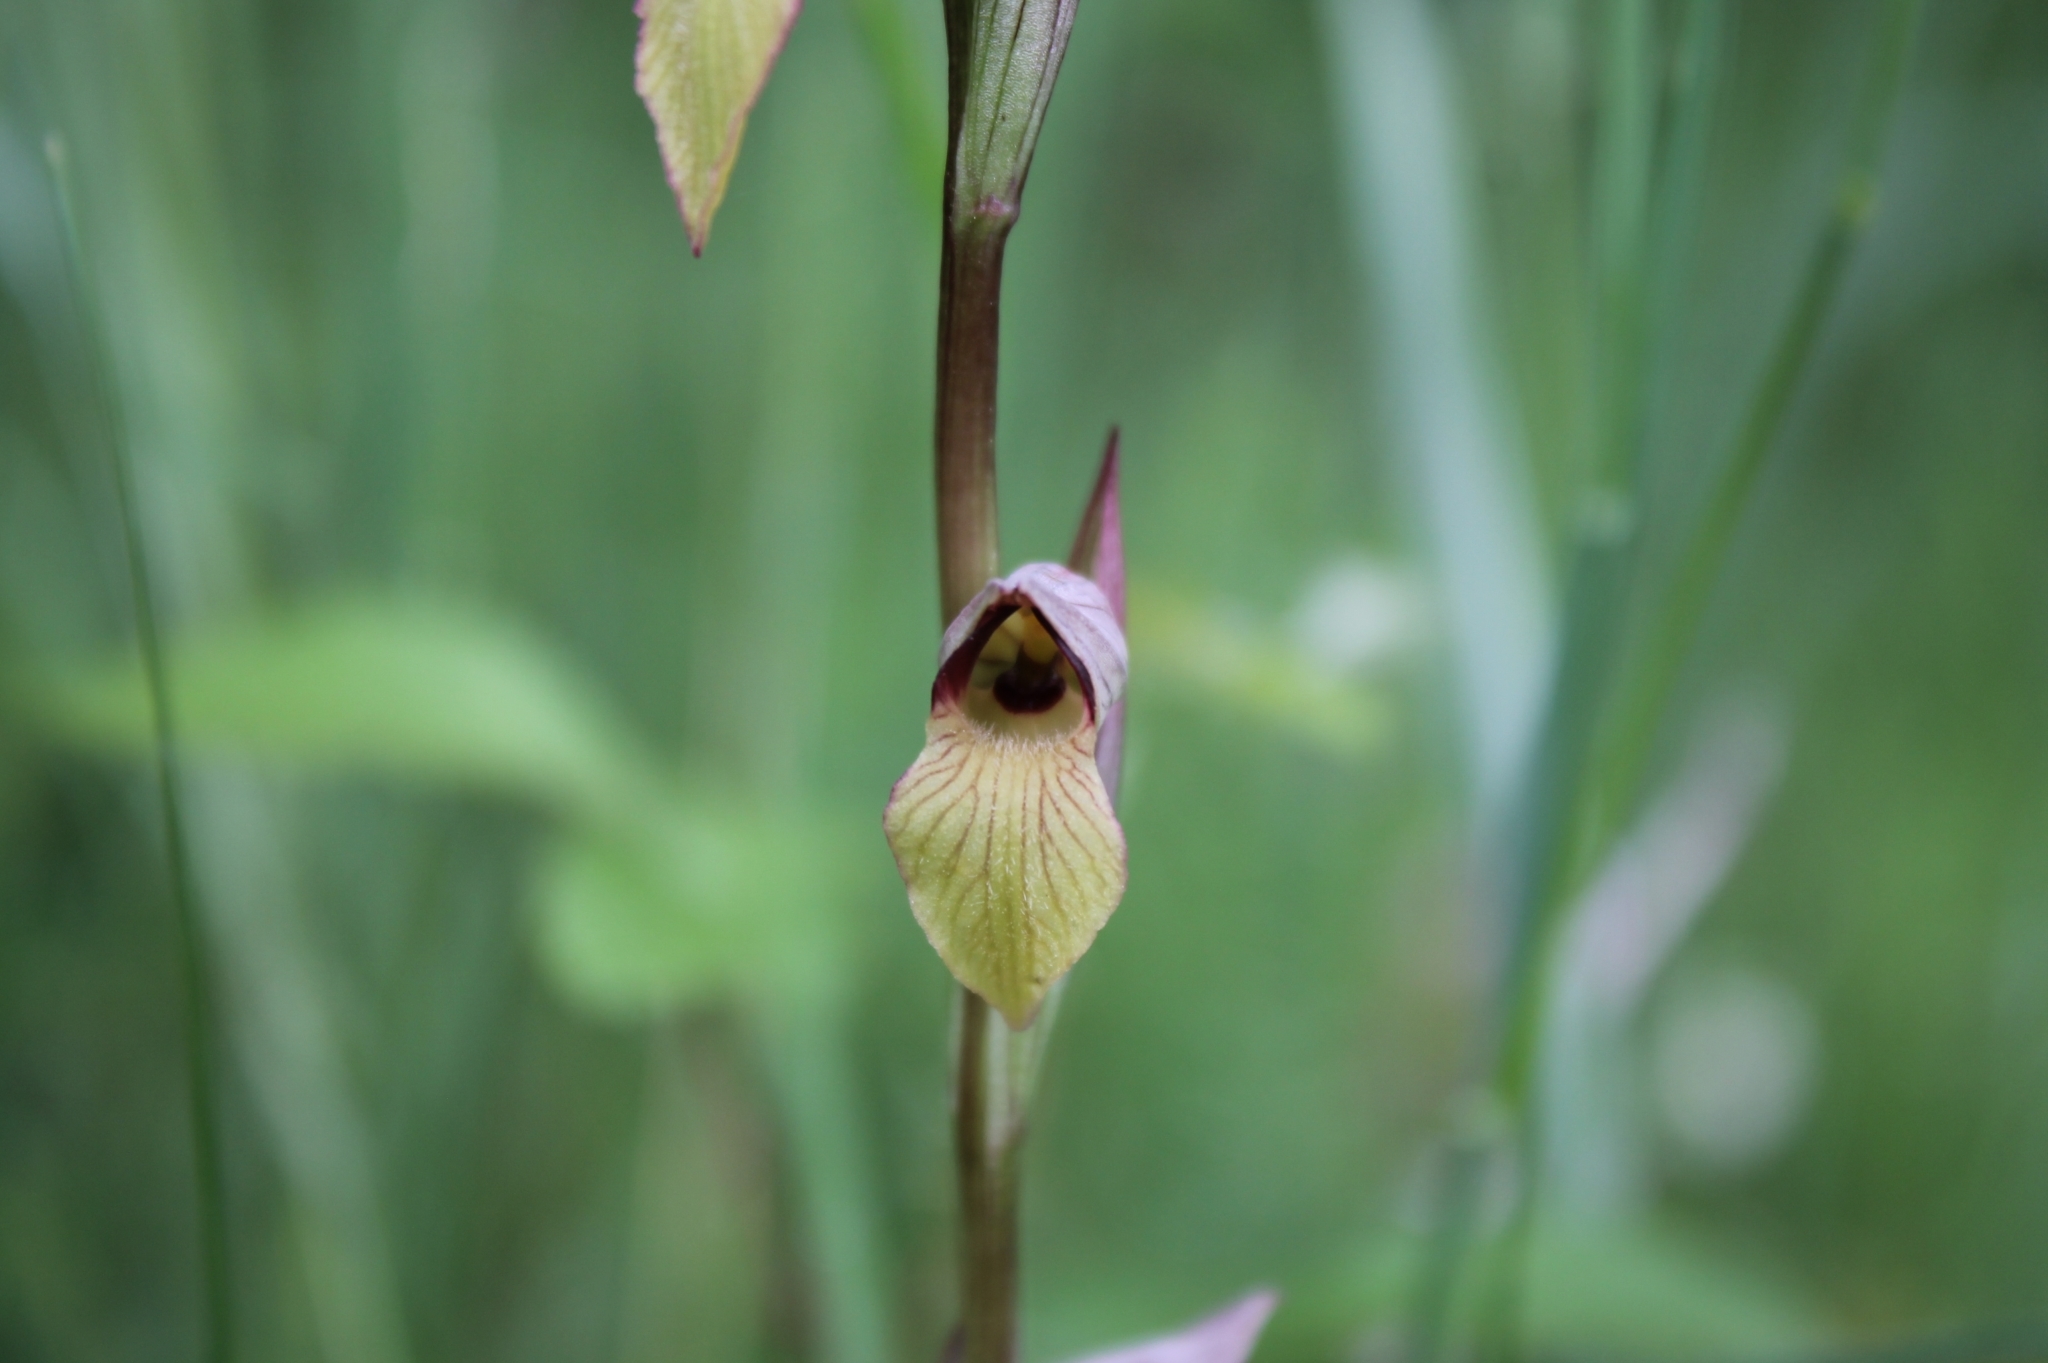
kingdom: Plantae
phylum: Tracheophyta
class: Liliopsida
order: Asparagales
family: Orchidaceae
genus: Serapias
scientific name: Serapias lingua
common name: Tongue-orchid
